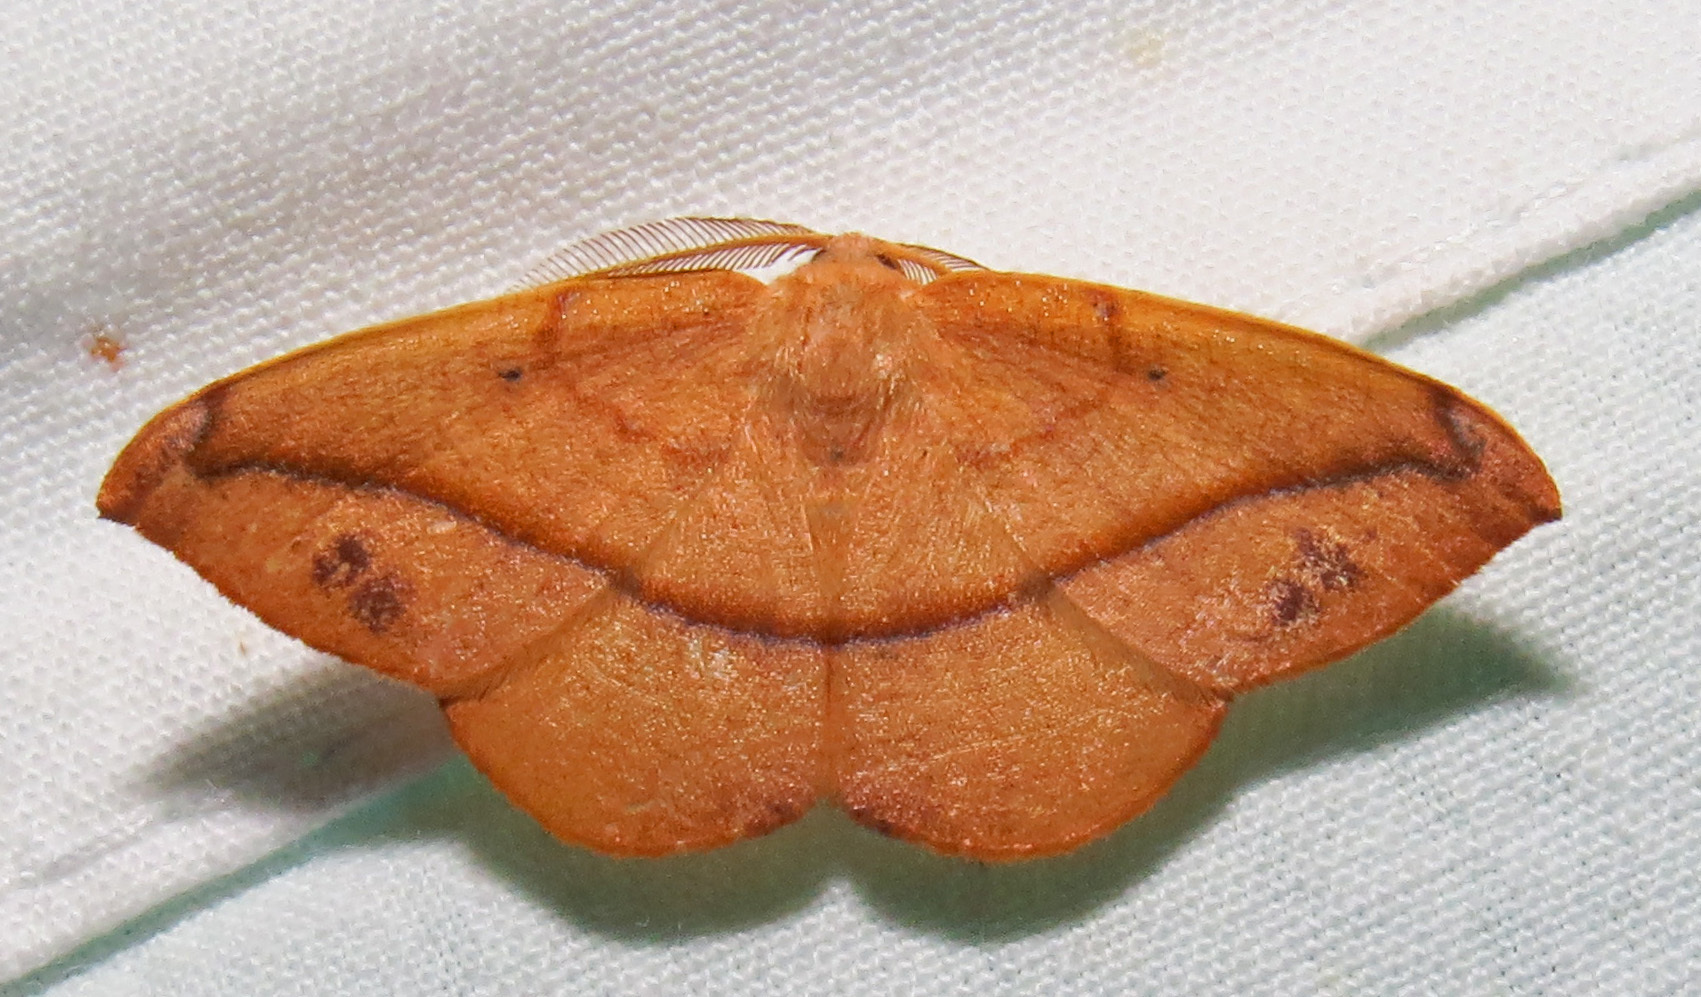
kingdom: Animalia
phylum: Arthropoda
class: Insecta
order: Lepidoptera
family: Geometridae
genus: Patalene
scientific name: Patalene olyzonaria
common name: Juniper geometer moth
